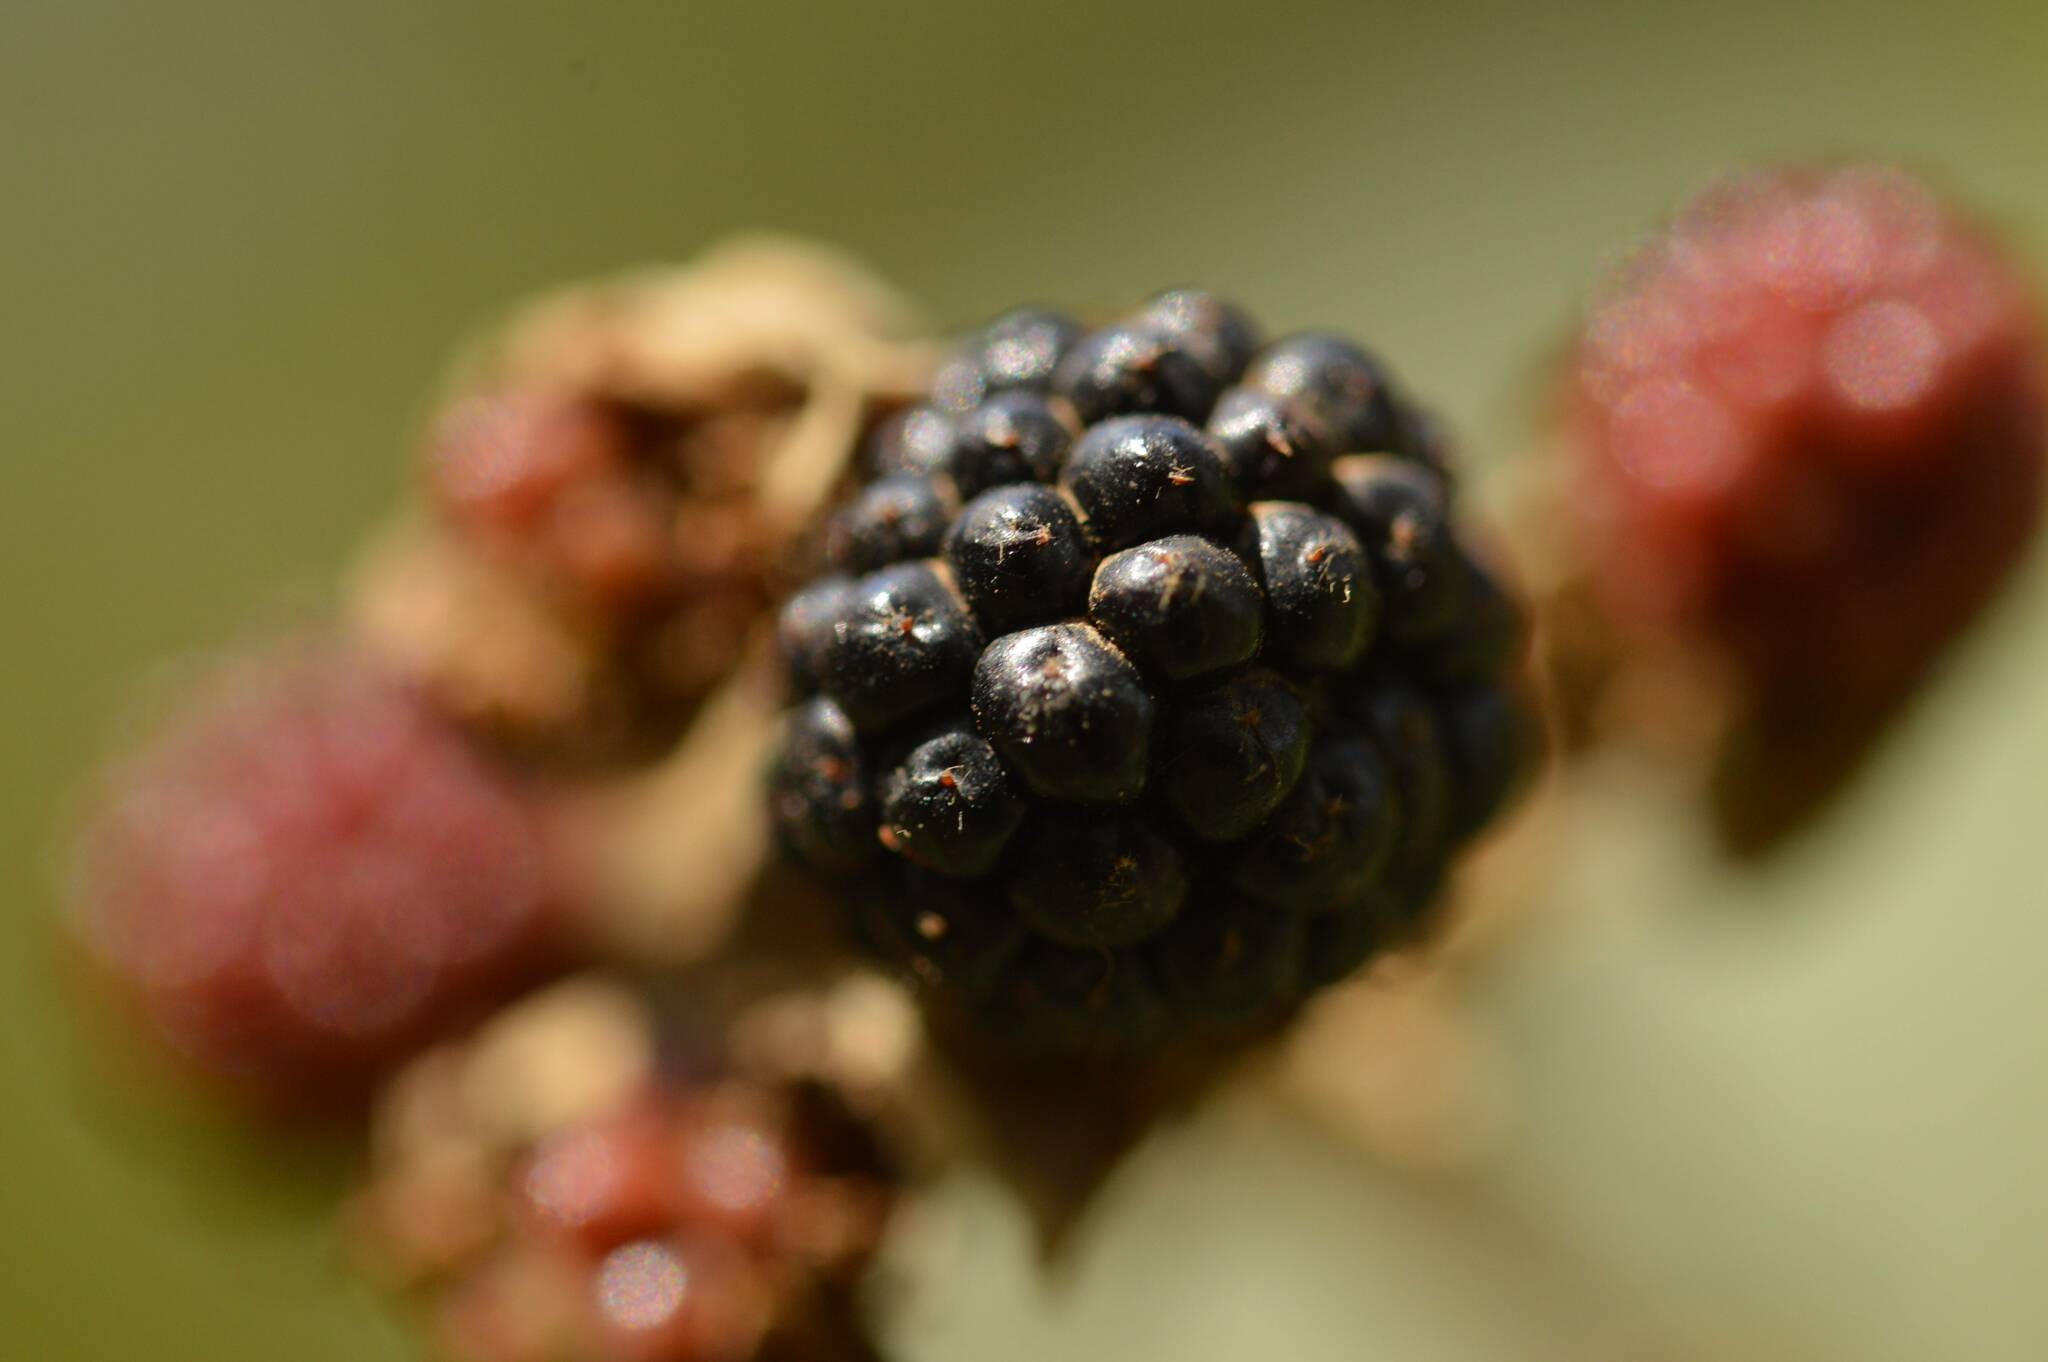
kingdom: Plantae
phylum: Tracheophyta
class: Magnoliopsida
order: Rosales
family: Rosaceae
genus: Rubus
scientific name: Rubus ulmifolius
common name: Elmleaf blackberry
